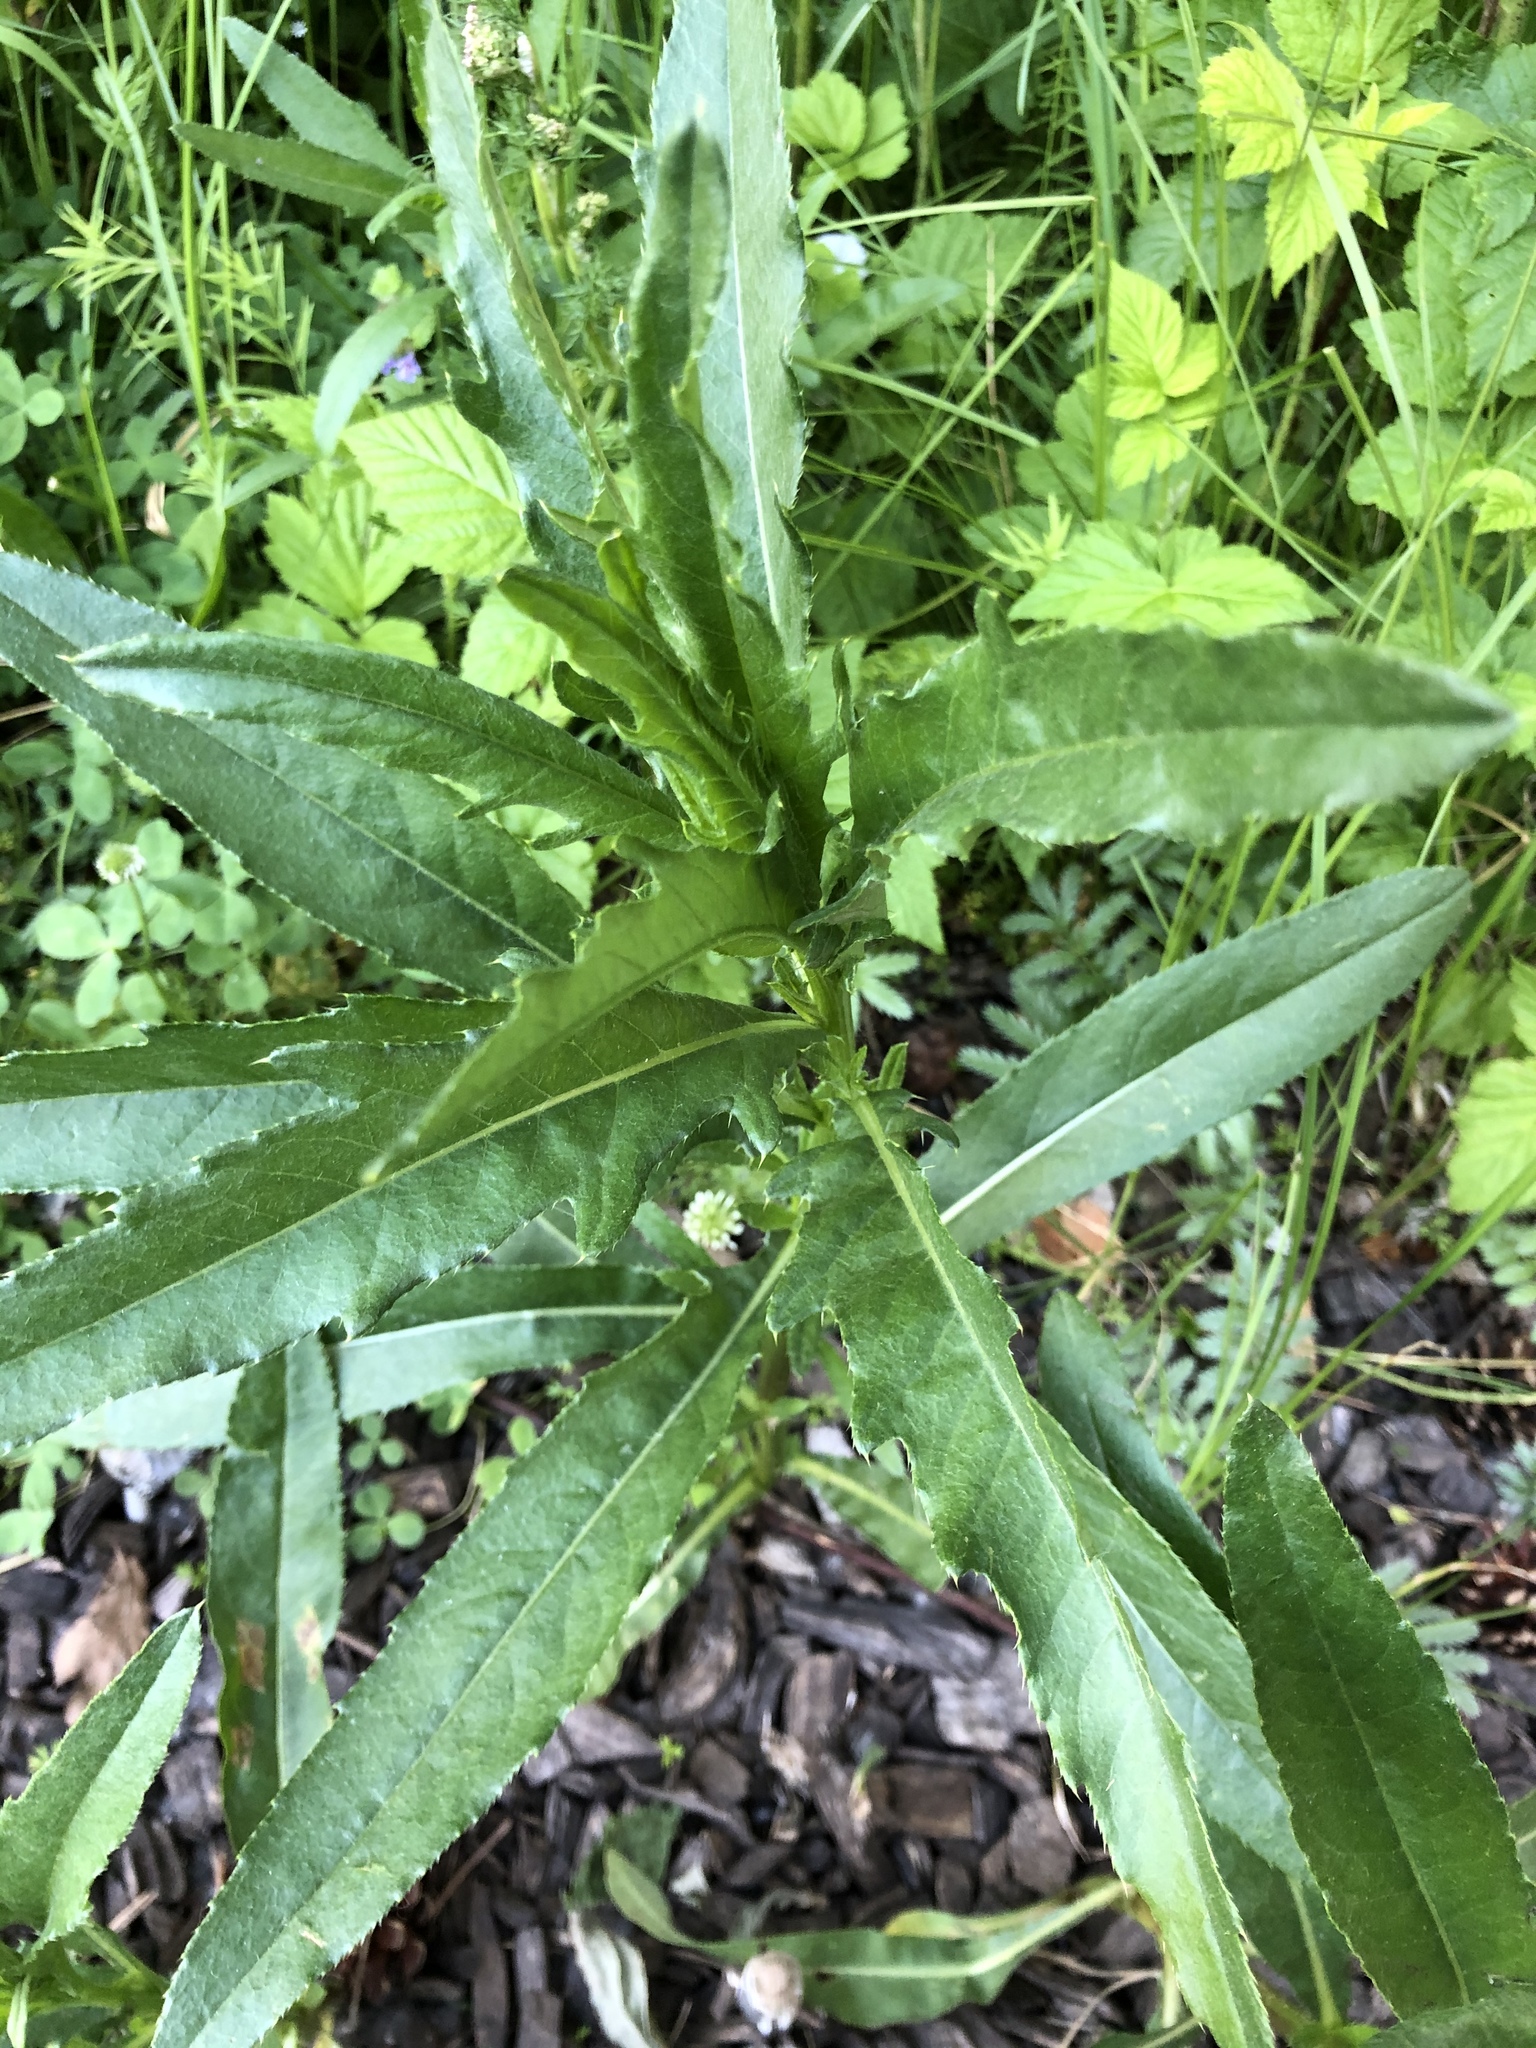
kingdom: Plantae
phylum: Tracheophyta
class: Magnoliopsida
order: Asterales
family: Asteraceae
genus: Cirsium
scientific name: Cirsium arvense
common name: Creeping thistle
